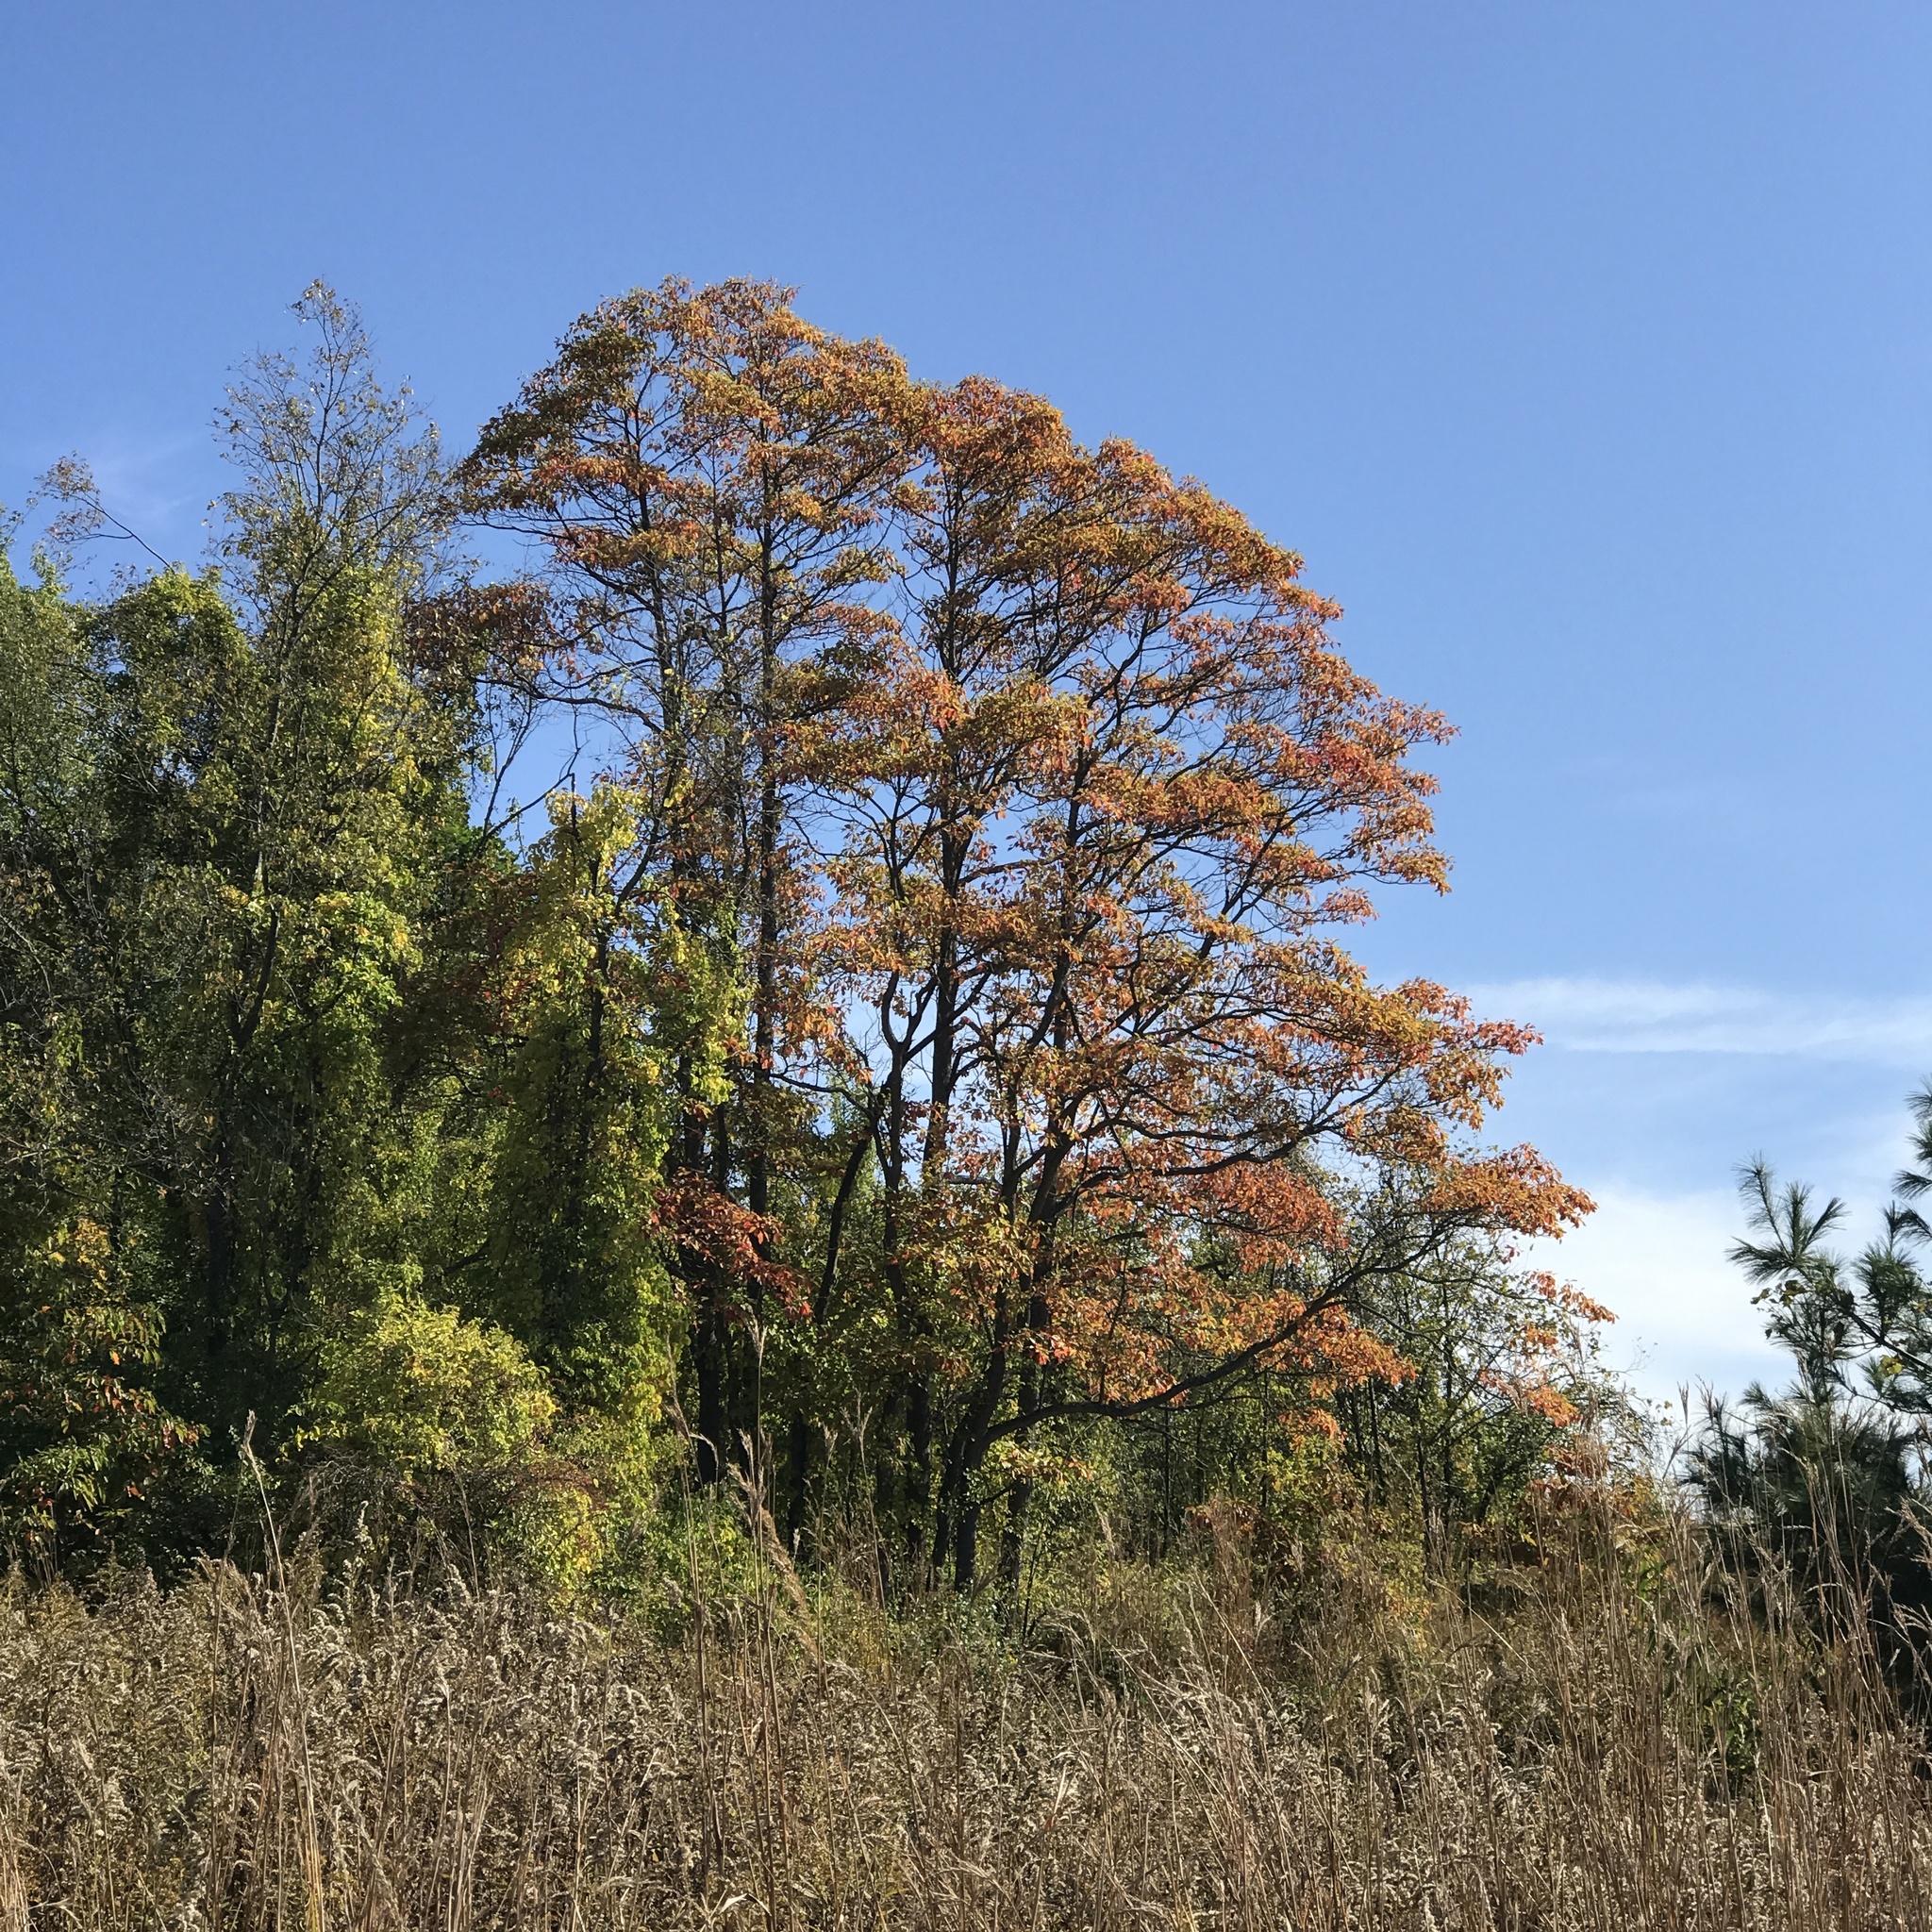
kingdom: Plantae
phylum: Tracheophyta
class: Magnoliopsida
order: Laurales
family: Lauraceae
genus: Sassafras
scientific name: Sassafras albidum
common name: Sassafras
